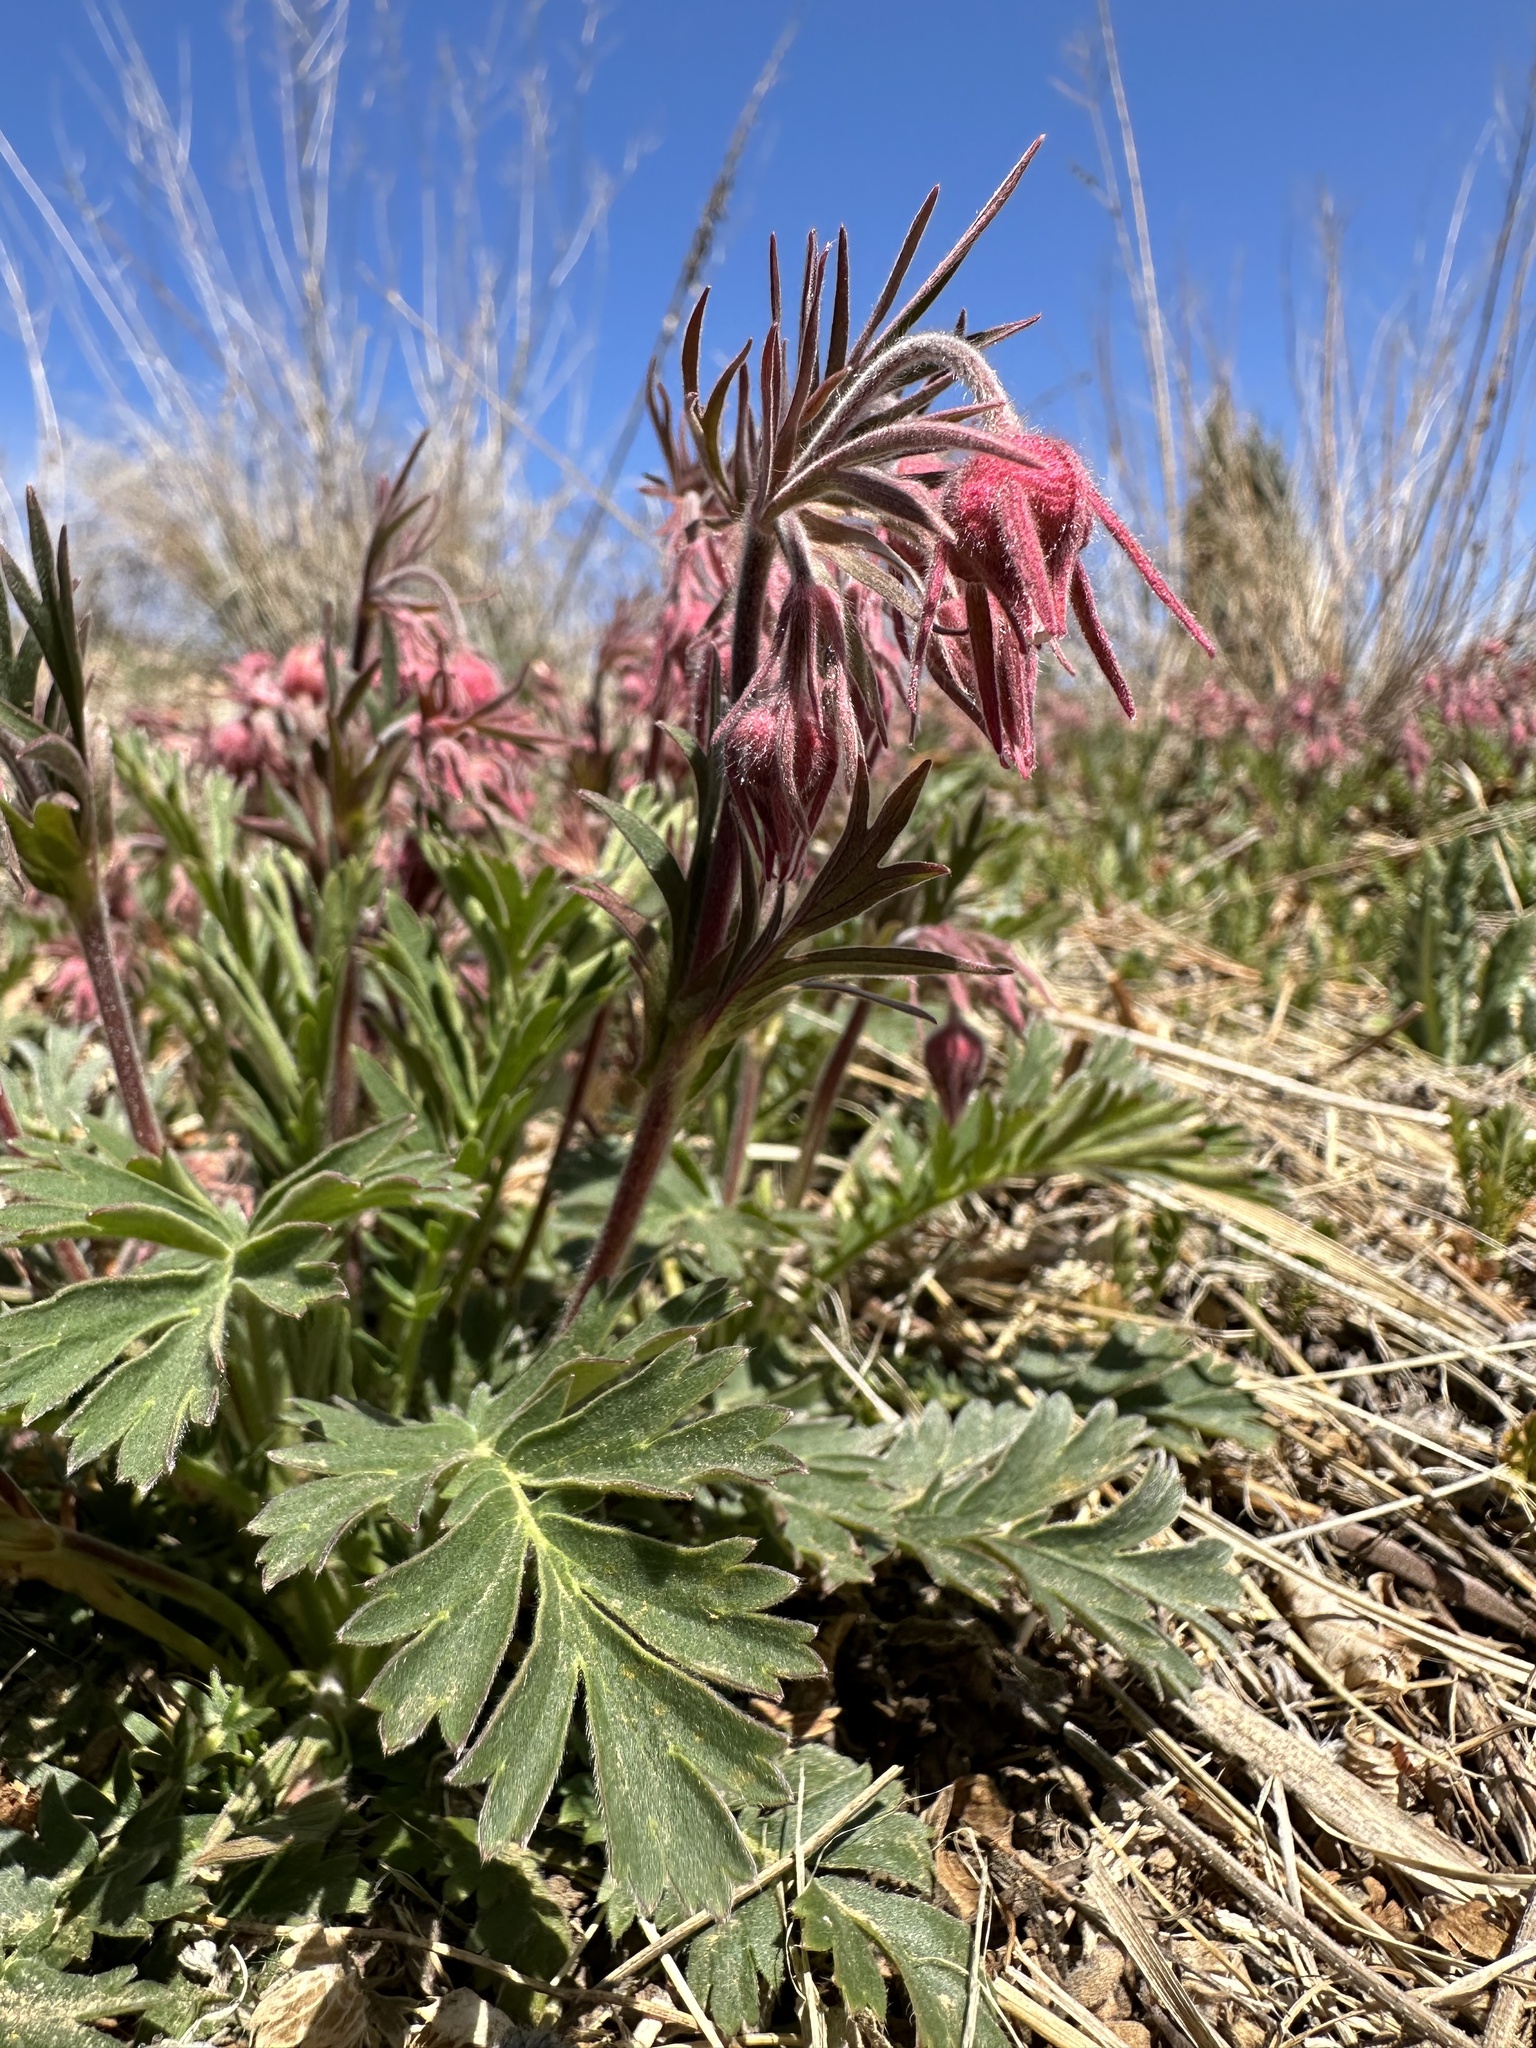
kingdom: Plantae
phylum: Tracheophyta
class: Magnoliopsida
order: Rosales
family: Rosaceae
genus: Geum
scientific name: Geum triflorum
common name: Old man's whiskers
